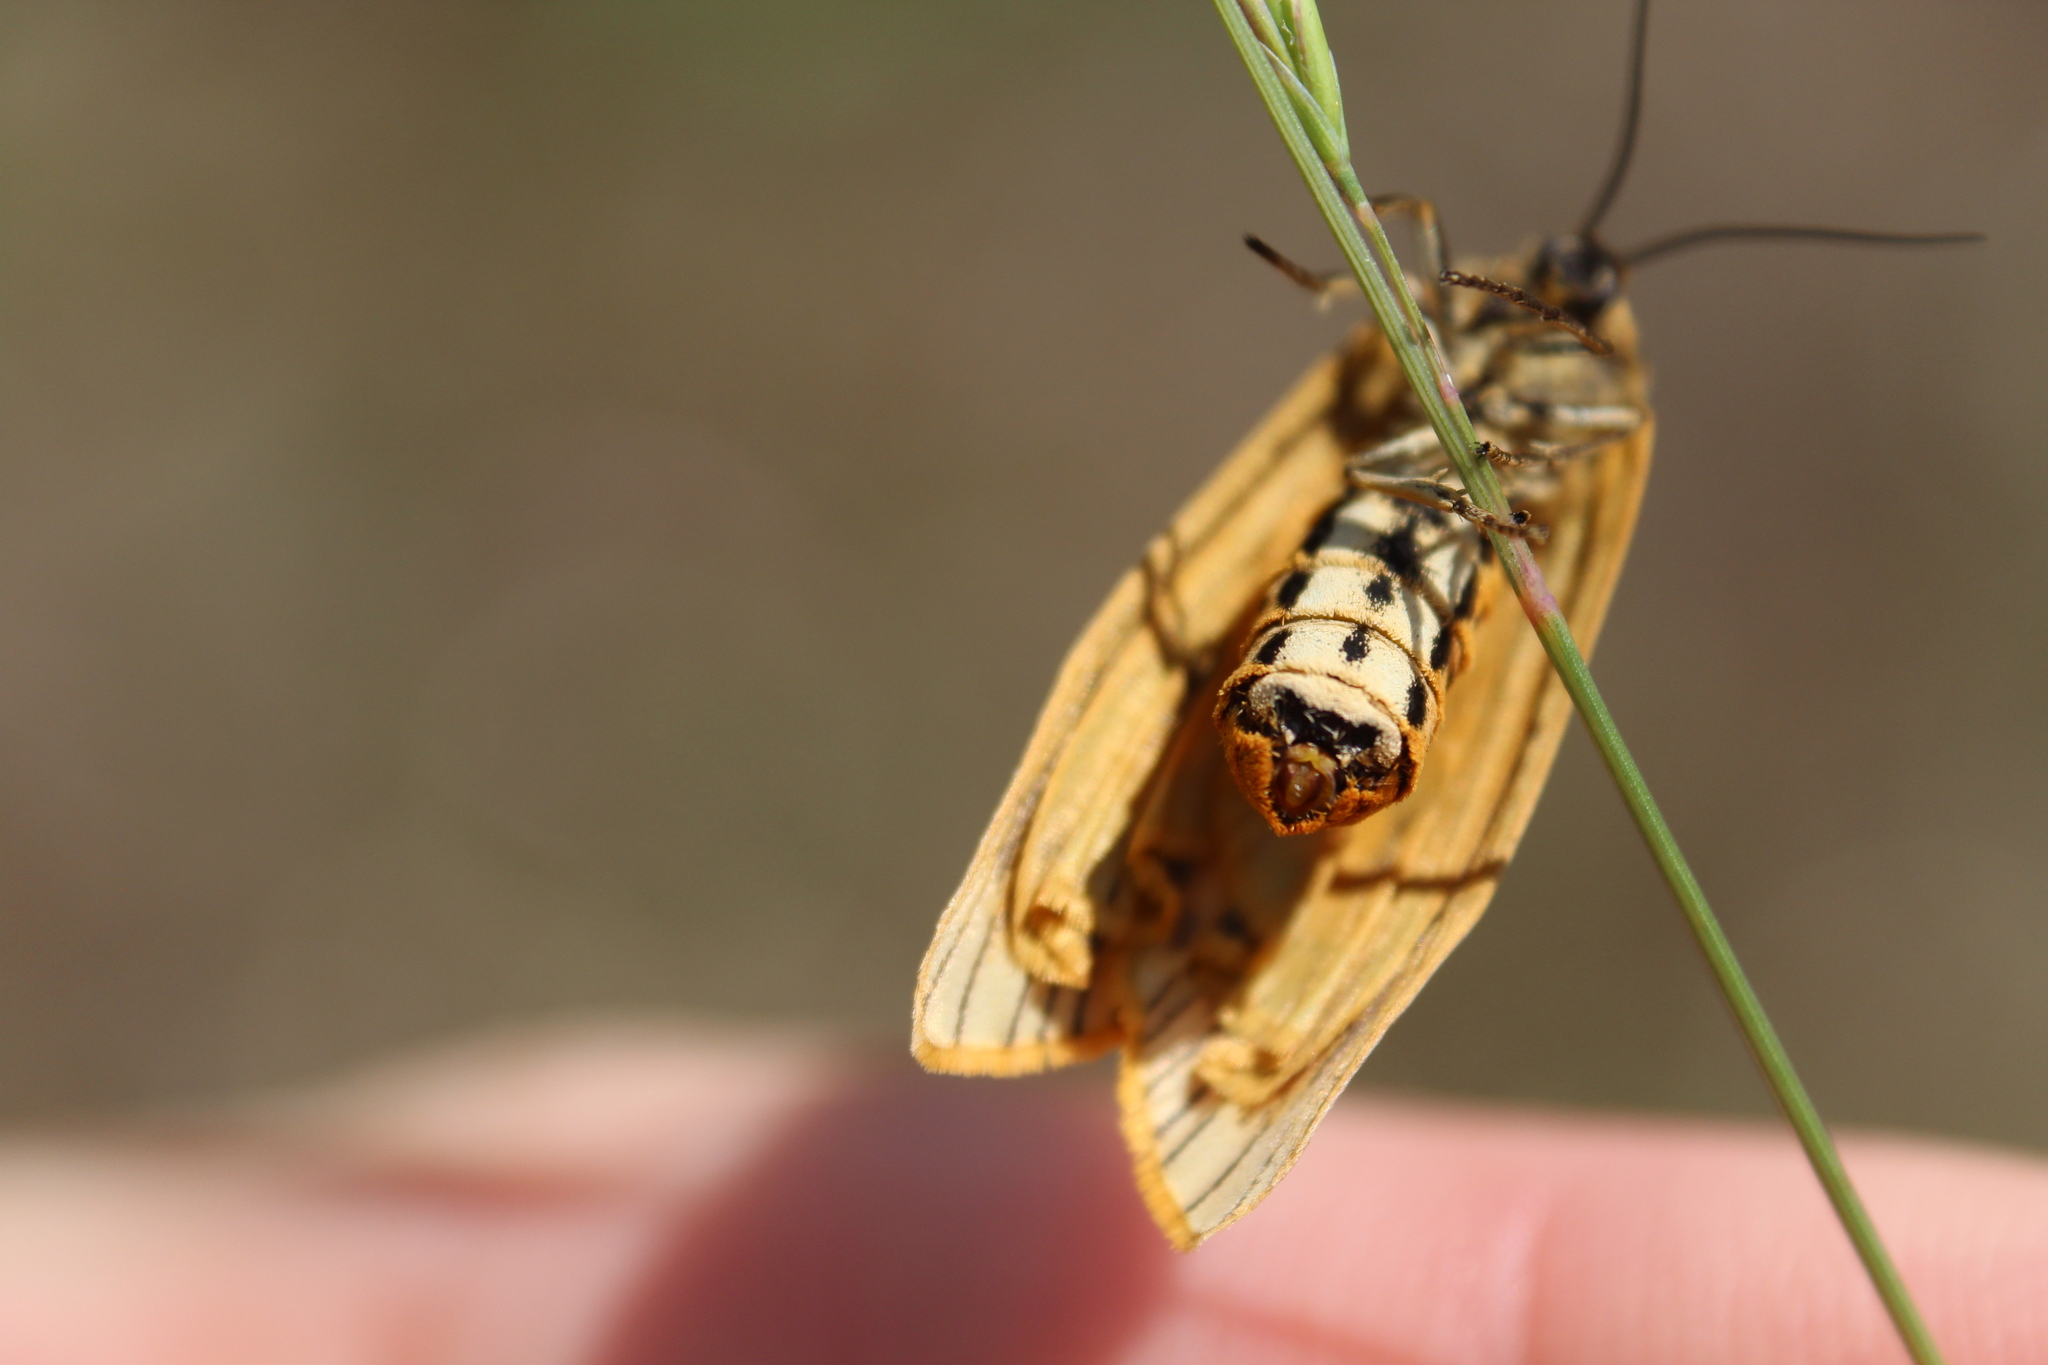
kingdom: Animalia
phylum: Arthropoda
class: Insecta
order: Lepidoptera
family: Erebidae
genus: Coscinia
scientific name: Coscinia Spiris striata
